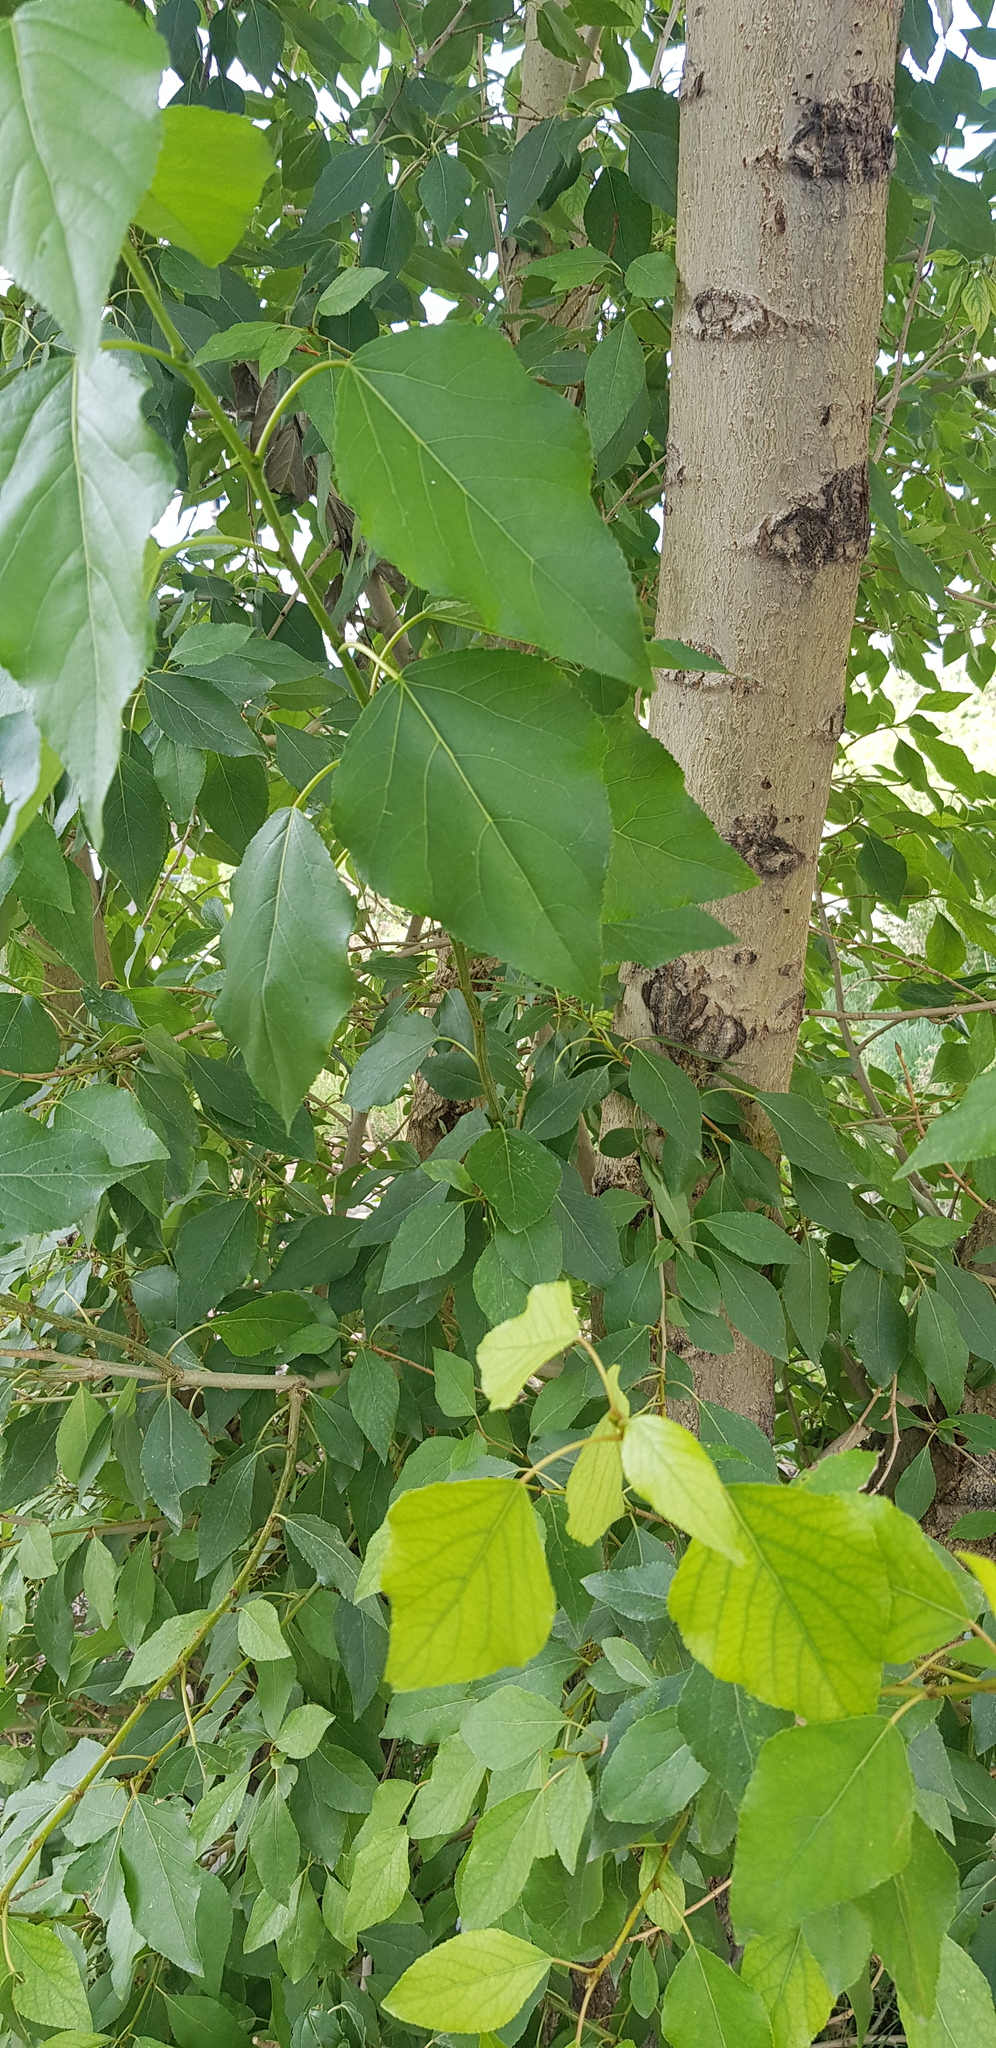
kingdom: Plantae
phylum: Tracheophyta
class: Magnoliopsida
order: Malpighiales
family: Salicaceae
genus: Populus
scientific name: Populus laurifolia
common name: Laurel-leaf poplar
